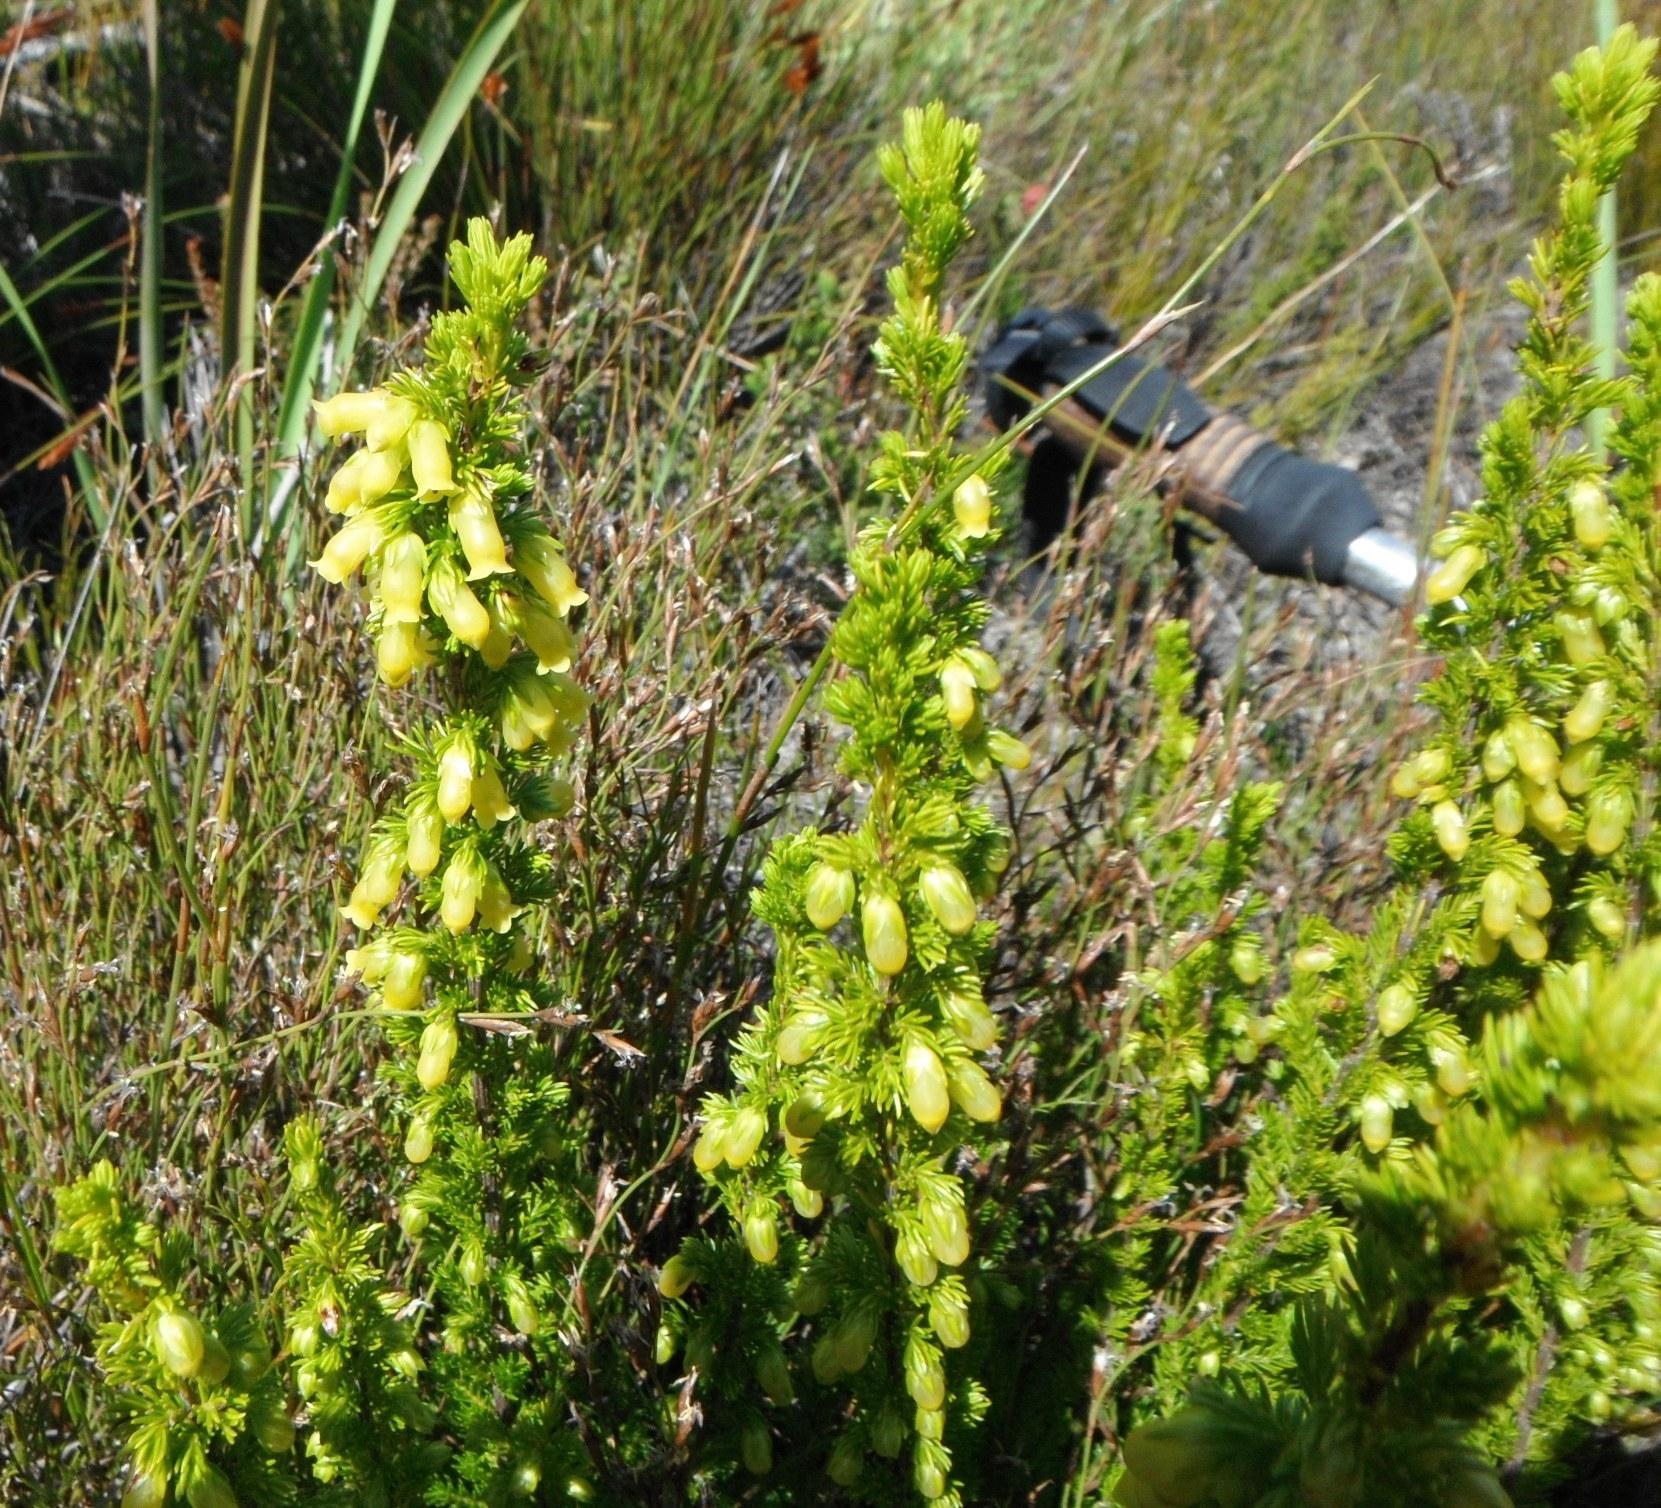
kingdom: Plantae
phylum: Tracheophyta
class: Magnoliopsida
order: Ericales
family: Ericaceae
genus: Erica
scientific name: Erica blandfordia
